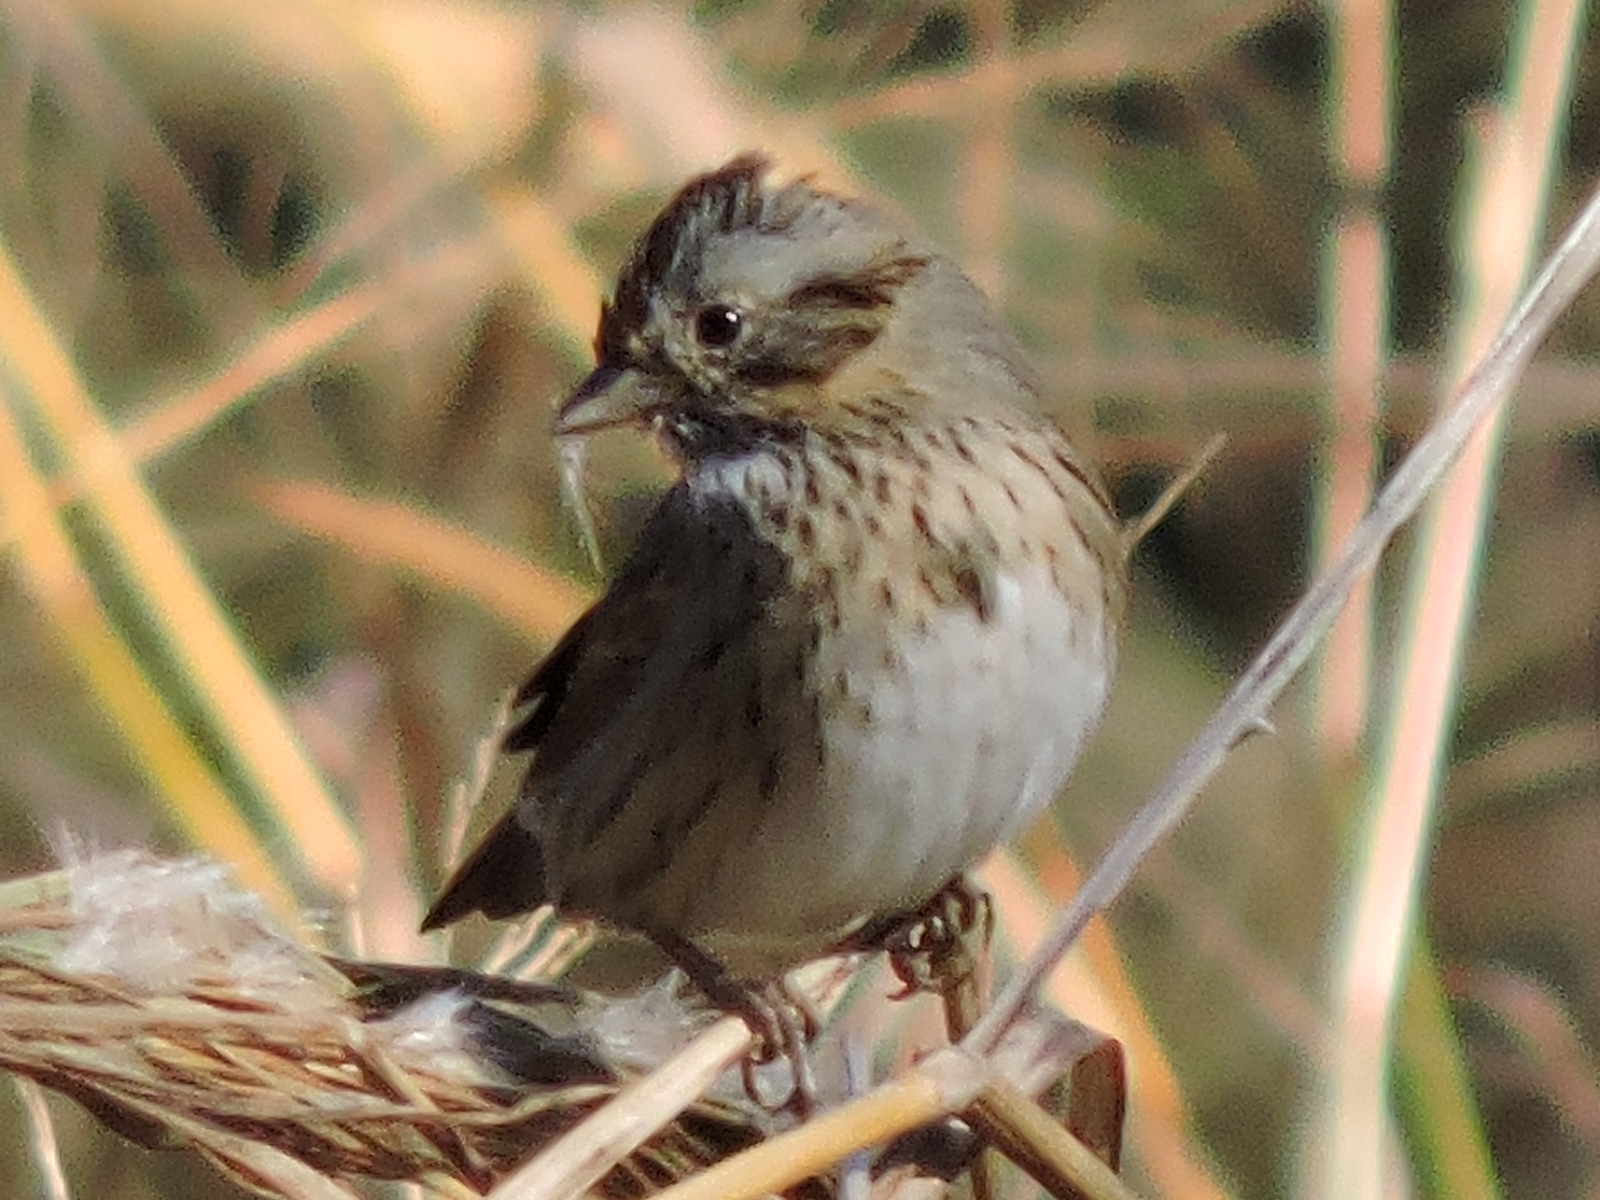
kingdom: Animalia
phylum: Chordata
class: Aves
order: Passeriformes
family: Passerellidae
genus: Melospiza
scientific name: Melospiza lincolnii
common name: Lincoln's sparrow
